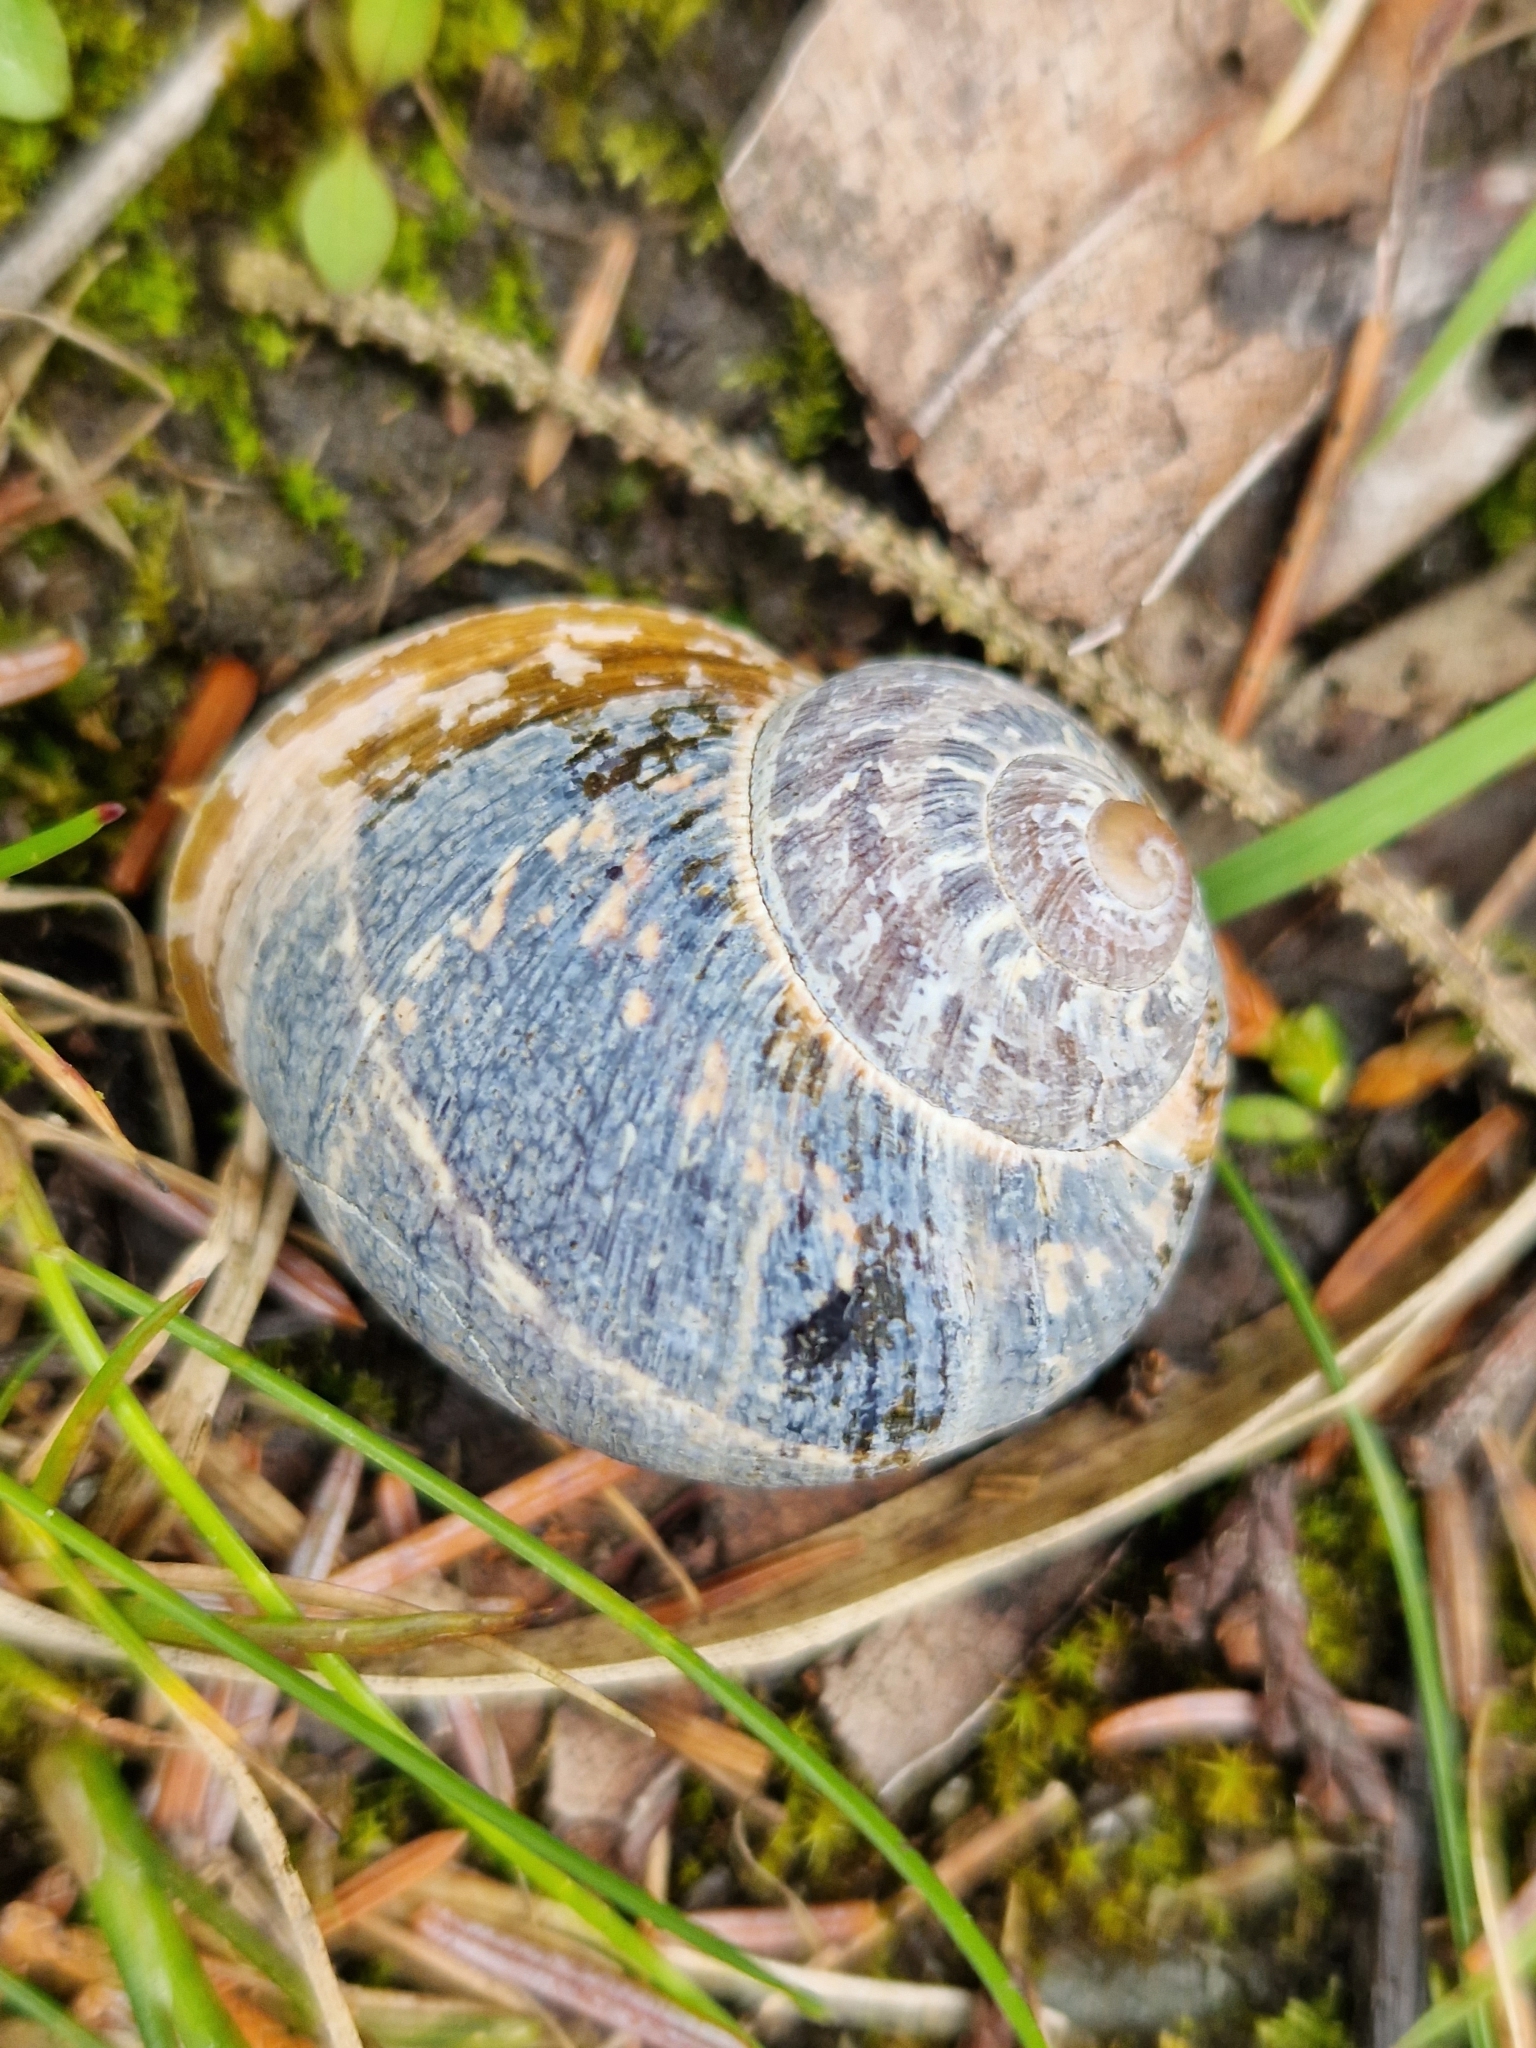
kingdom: Animalia
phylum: Mollusca
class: Gastropoda
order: Stylommatophora
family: Helicidae
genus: Cornu
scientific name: Cornu aspersum
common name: Brown garden snail
